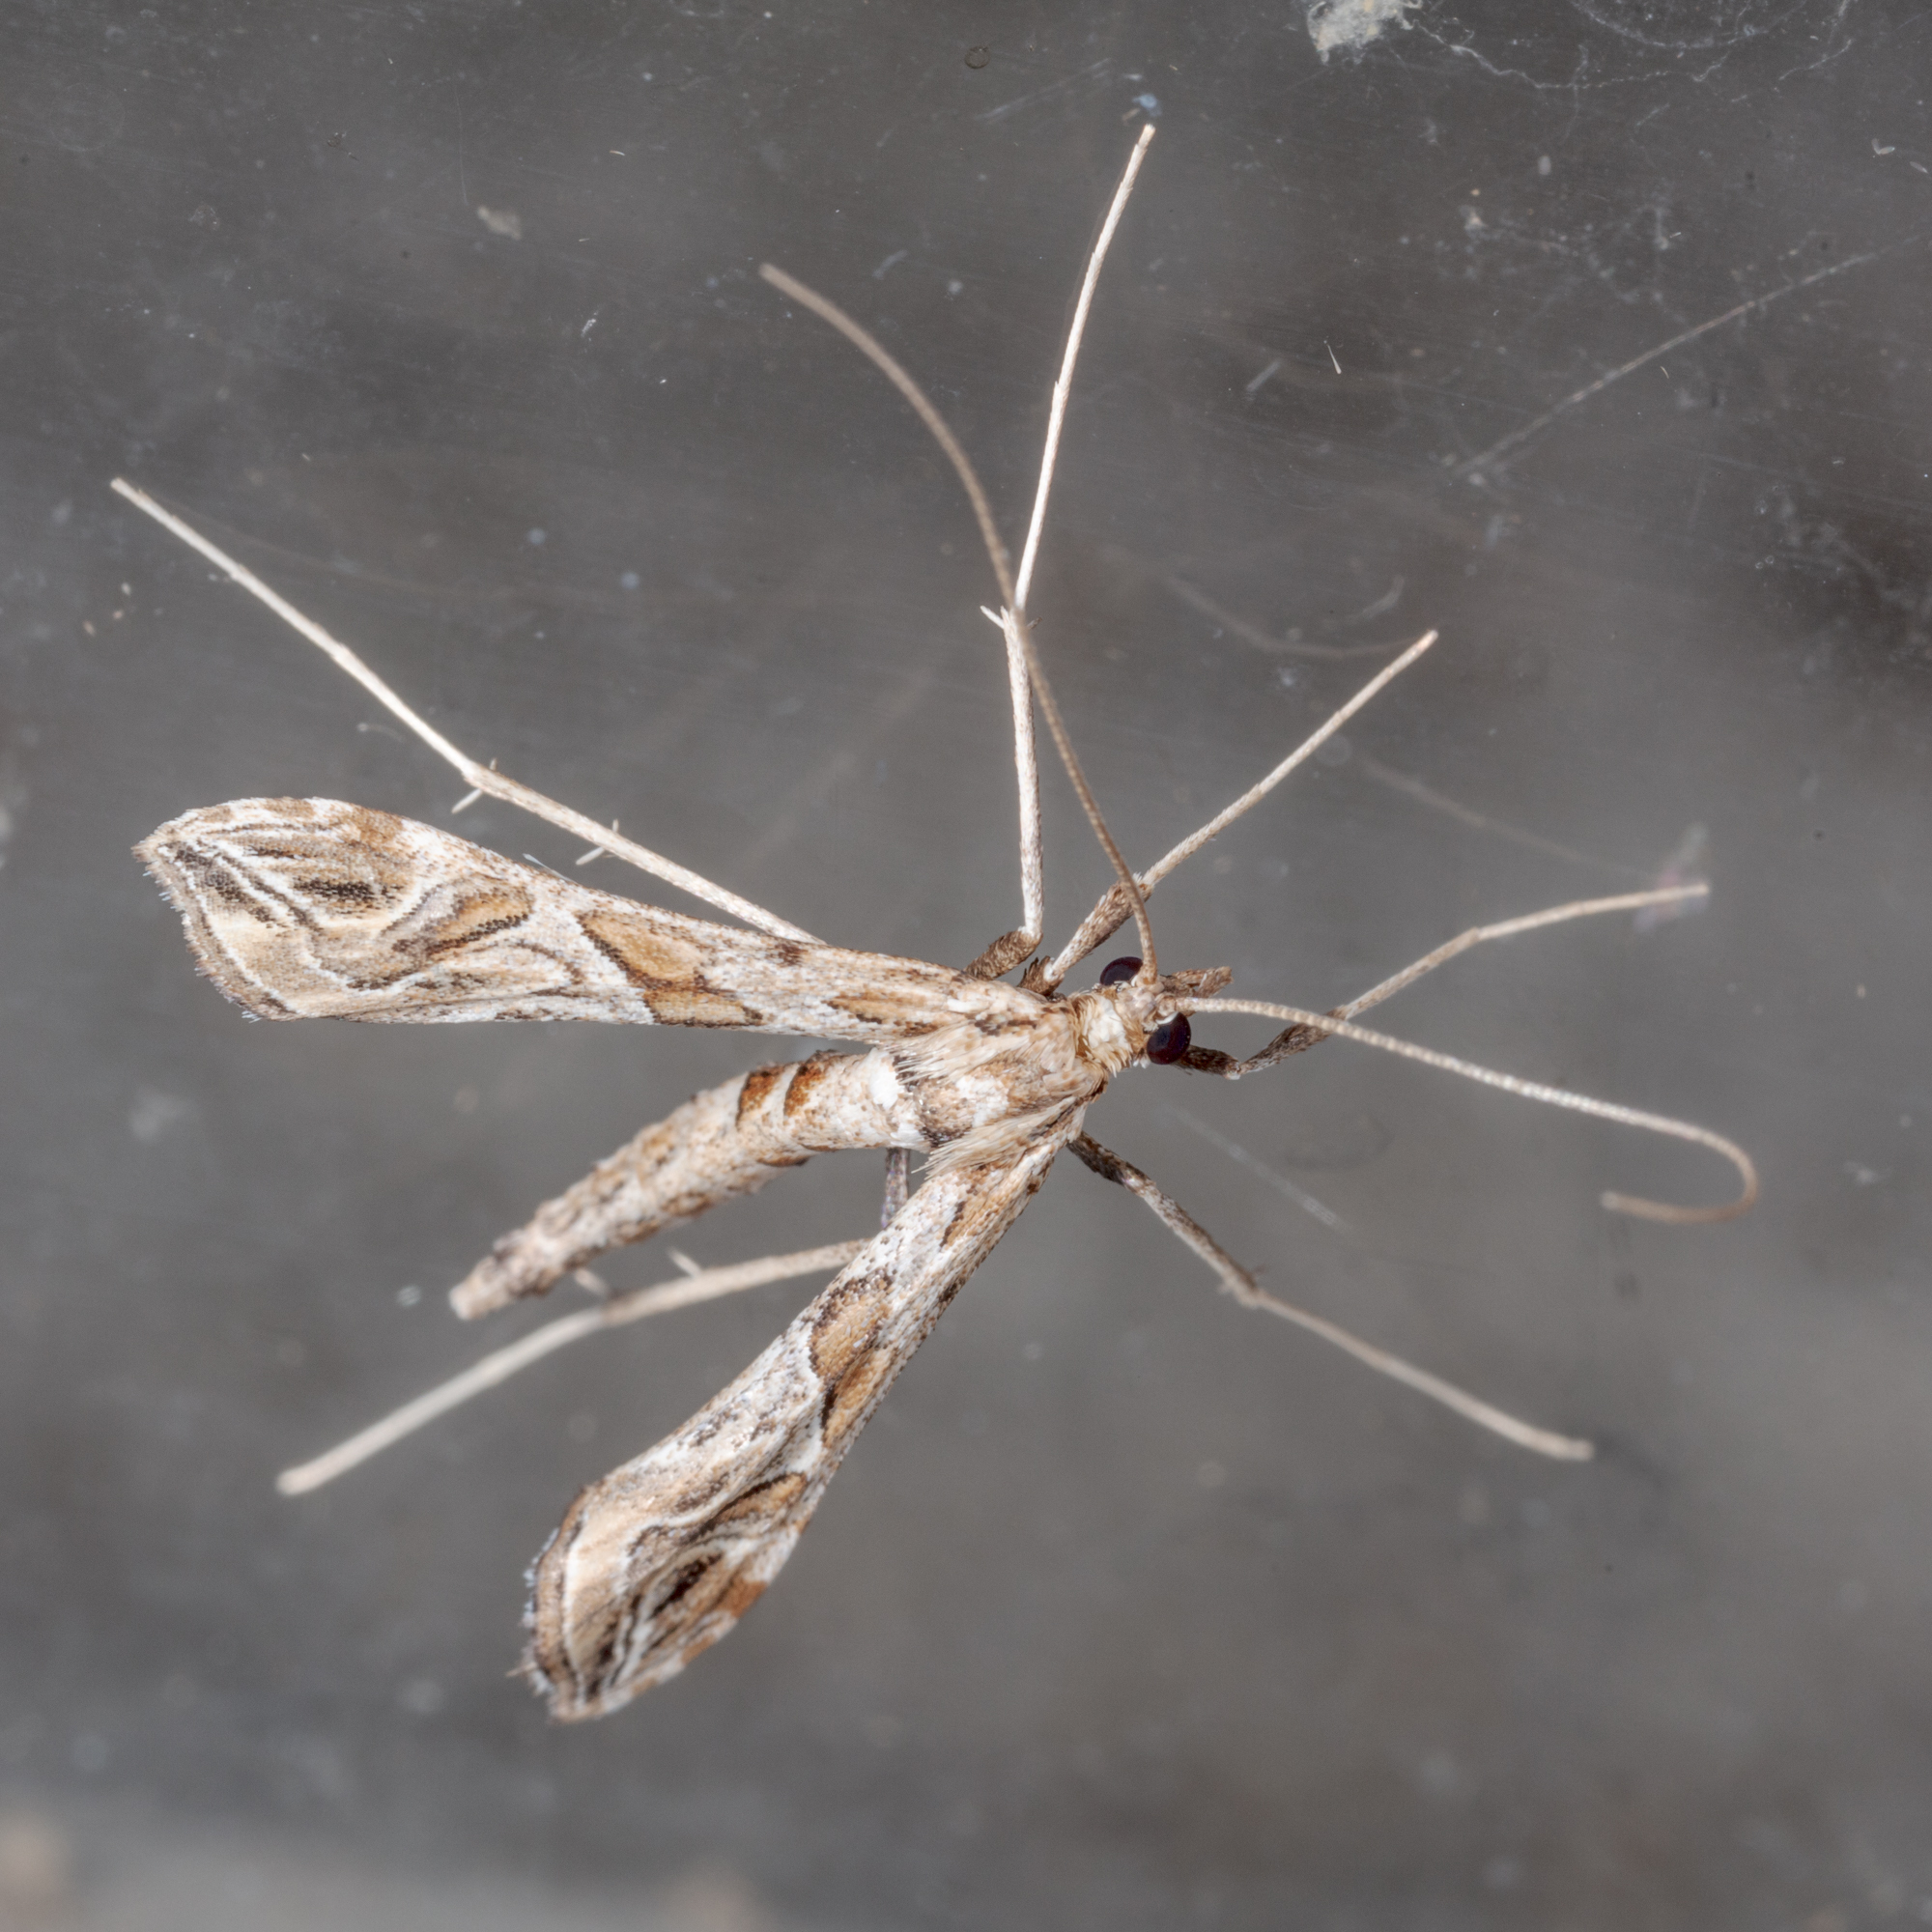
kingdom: Animalia
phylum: Arthropoda
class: Insecta
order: Lepidoptera
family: Crambidae
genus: Lineodes
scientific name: Lineodes interrupta
